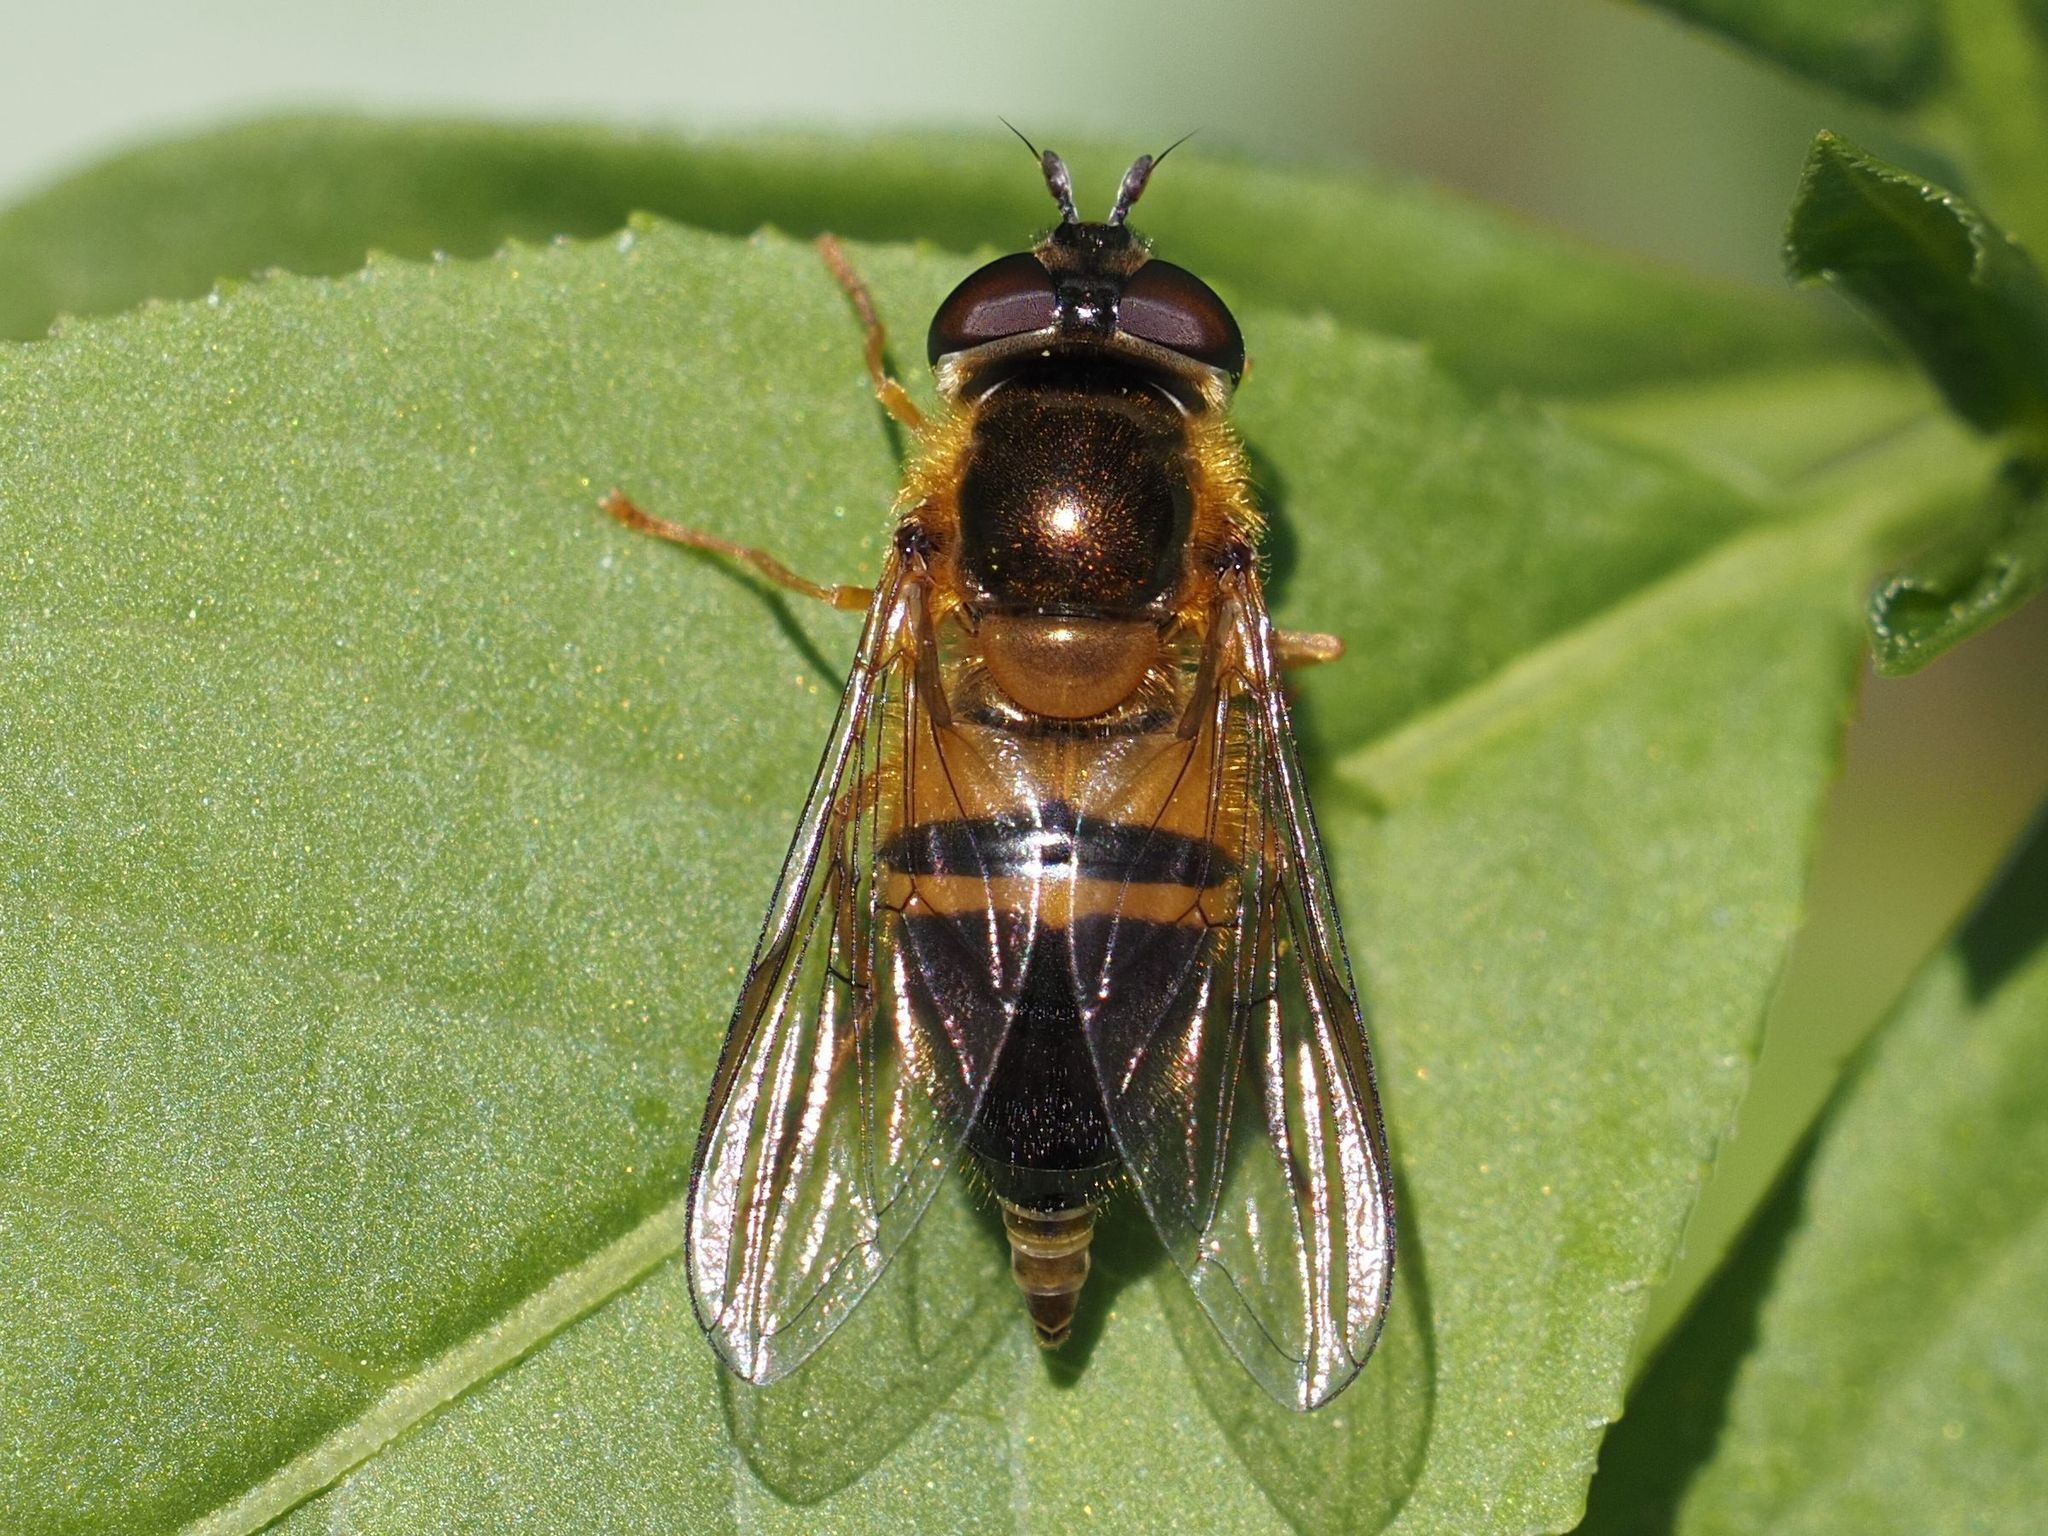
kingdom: Animalia
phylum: Arthropoda
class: Insecta
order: Diptera
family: Syrphidae
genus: Epistrophe
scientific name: Epistrophe eligans
